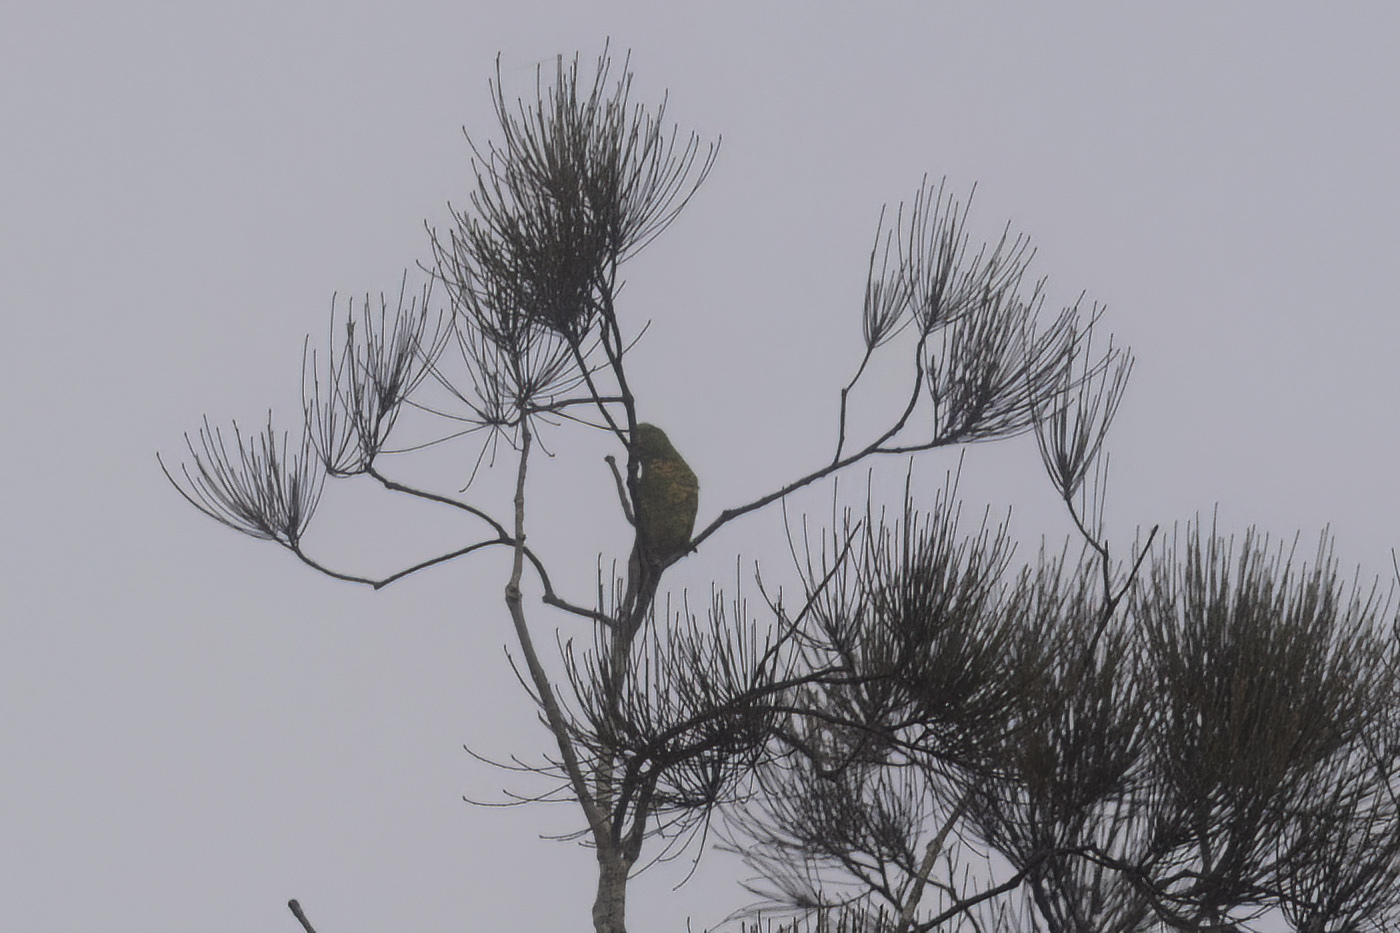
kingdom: Animalia
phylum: Chordata
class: Aves
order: Psittaciformes
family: Psittacidae
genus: Trichoglossus
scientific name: Trichoglossus chlorolepidotus
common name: Scaly-breasted lorikeet
